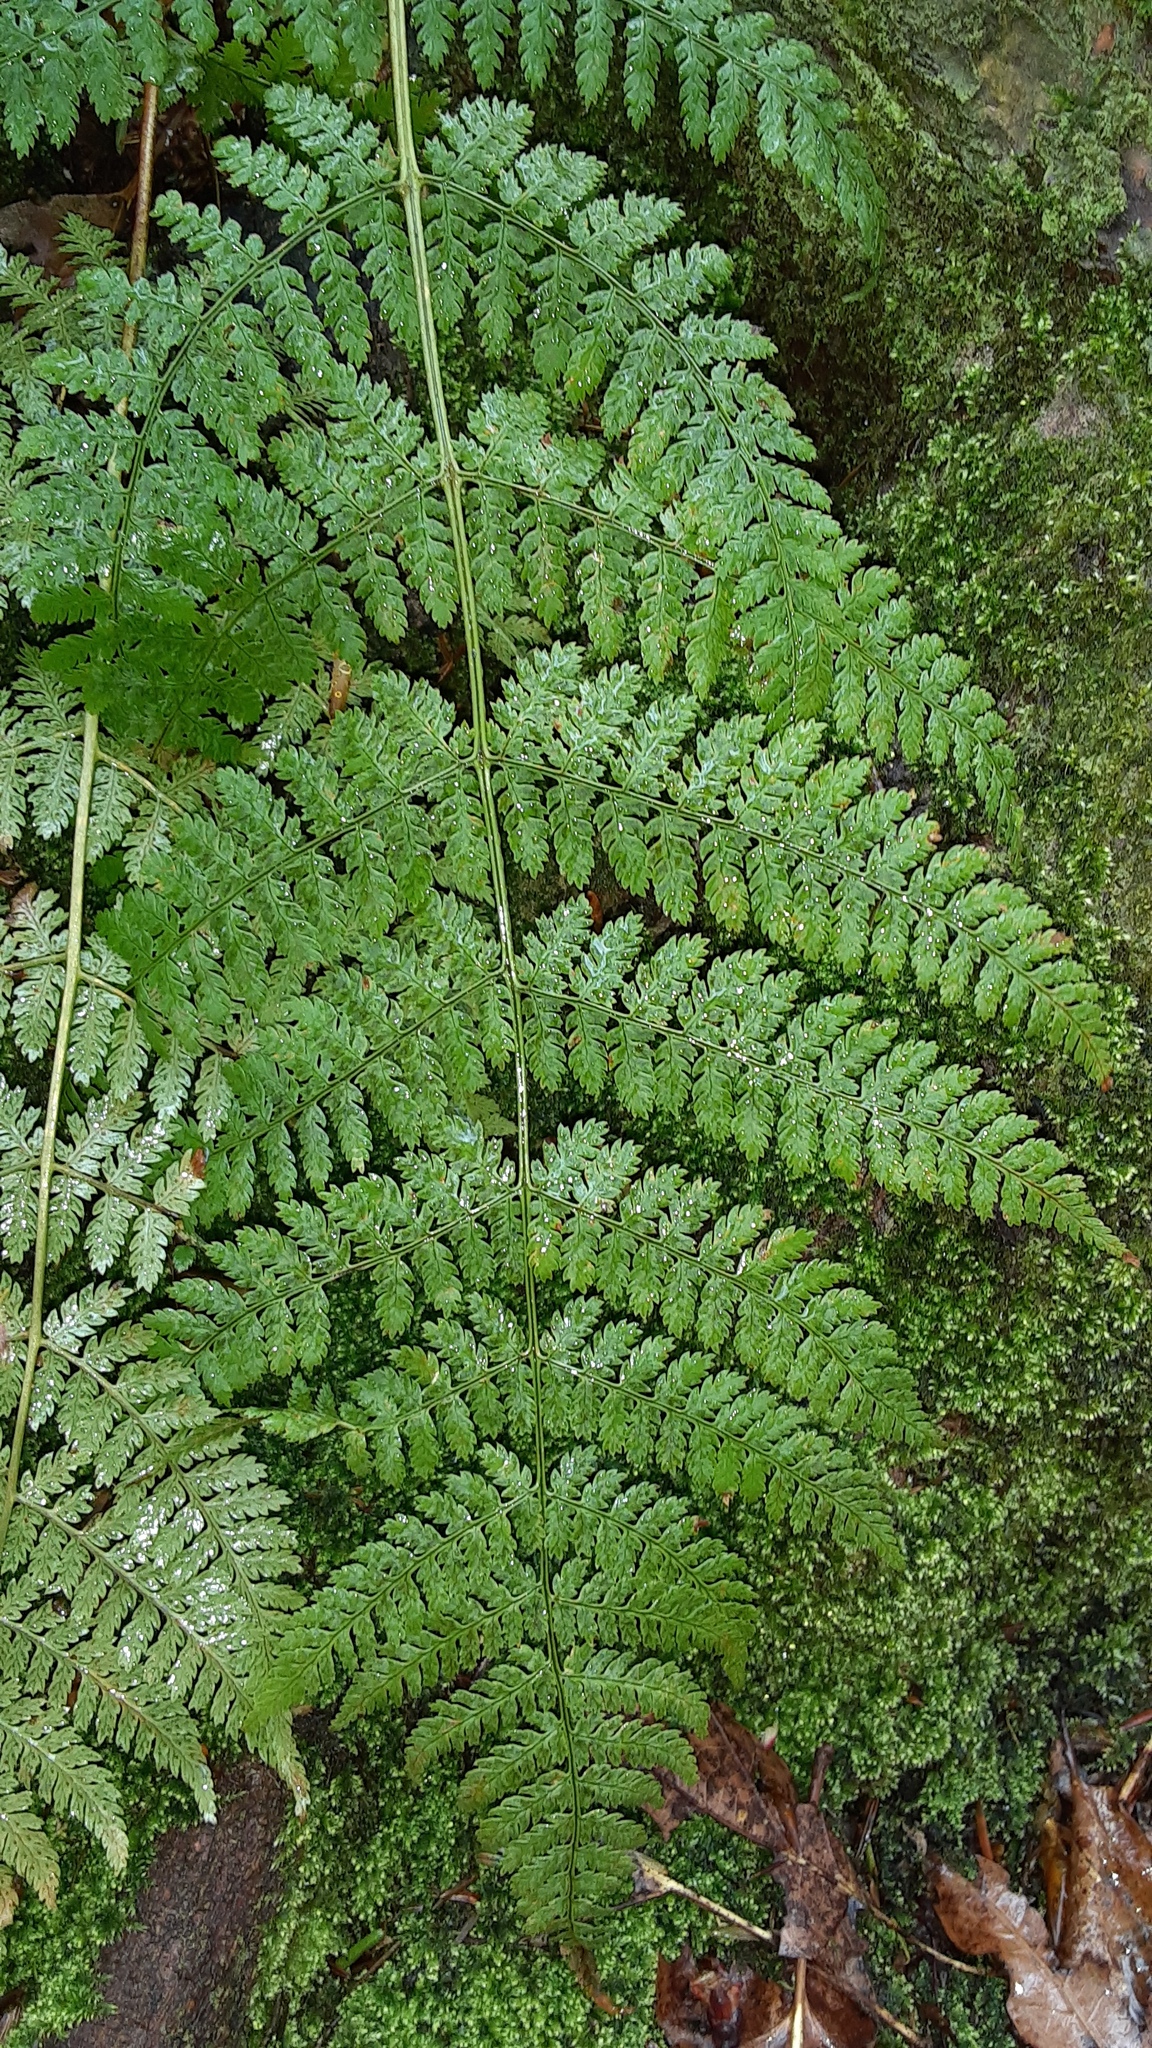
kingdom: Plantae
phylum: Tracheophyta
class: Polypodiopsida
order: Polypodiales
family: Dryopteridaceae
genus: Dryopteris
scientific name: Dryopteris intermedia
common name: Evergreen wood fern
